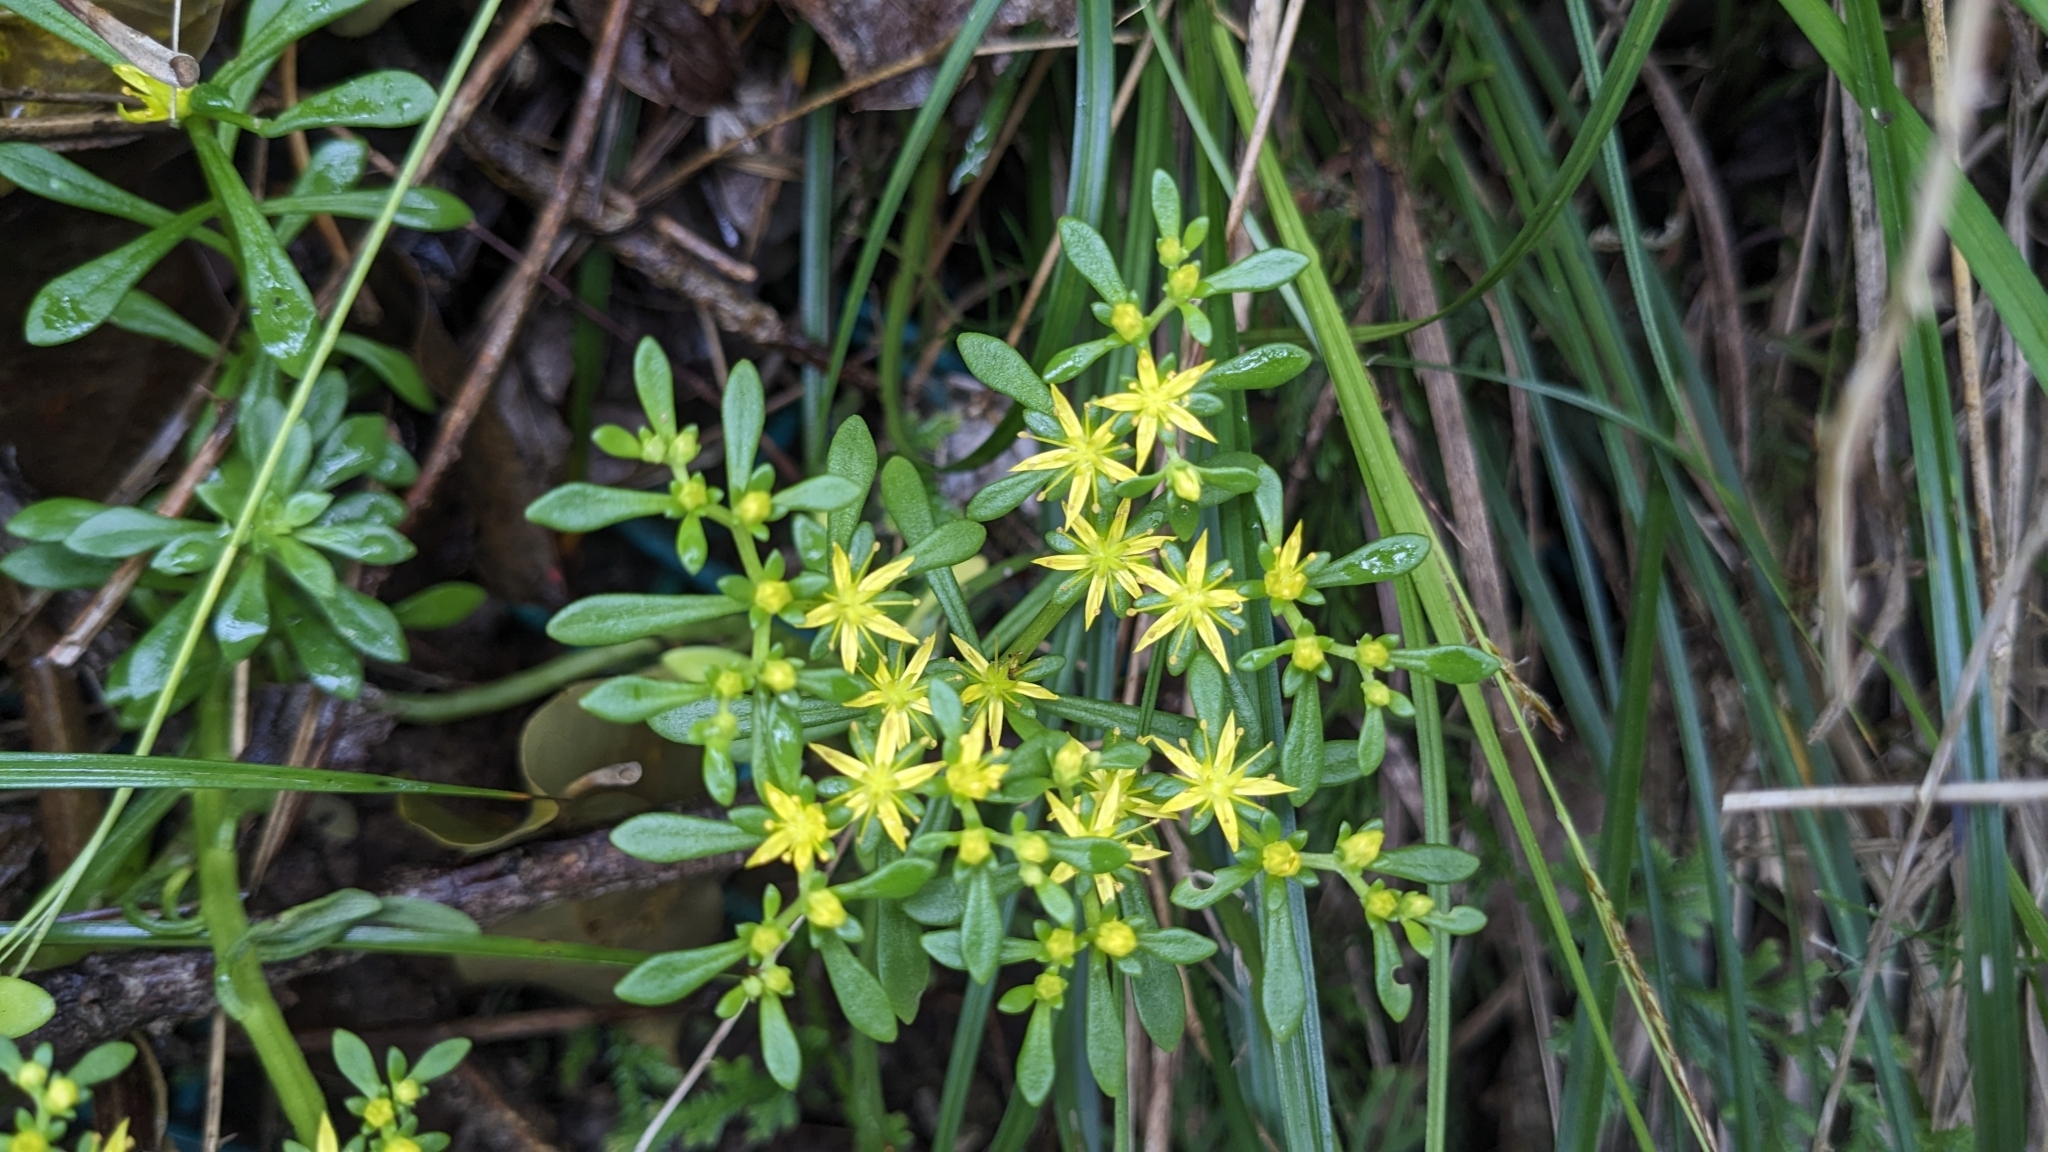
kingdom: Plantae
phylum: Tracheophyta
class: Magnoliopsida
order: Saxifragales
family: Crassulaceae
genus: Sedum
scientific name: Sedum sekiteiense
